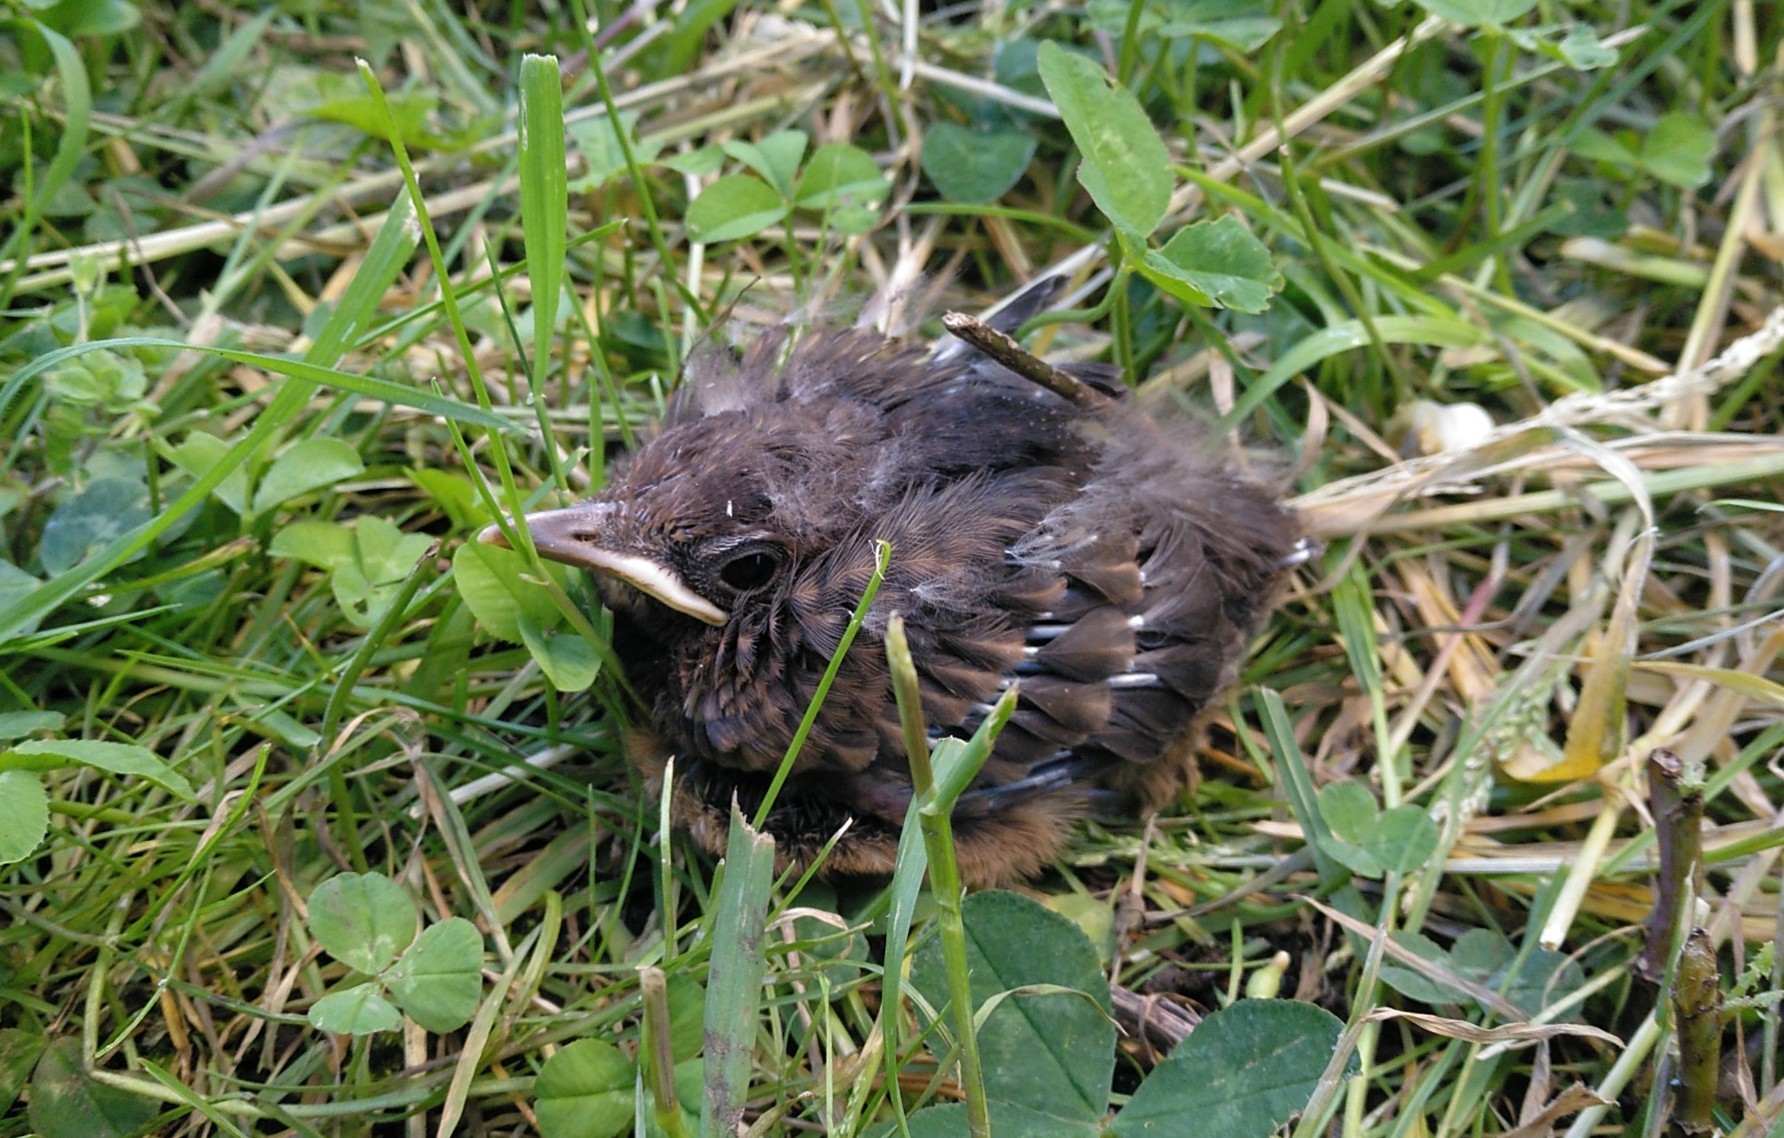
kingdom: Animalia
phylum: Chordata
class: Aves
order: Passeriformes
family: Turdidae
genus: Turdus
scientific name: Turdus merula
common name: Common blackbird
